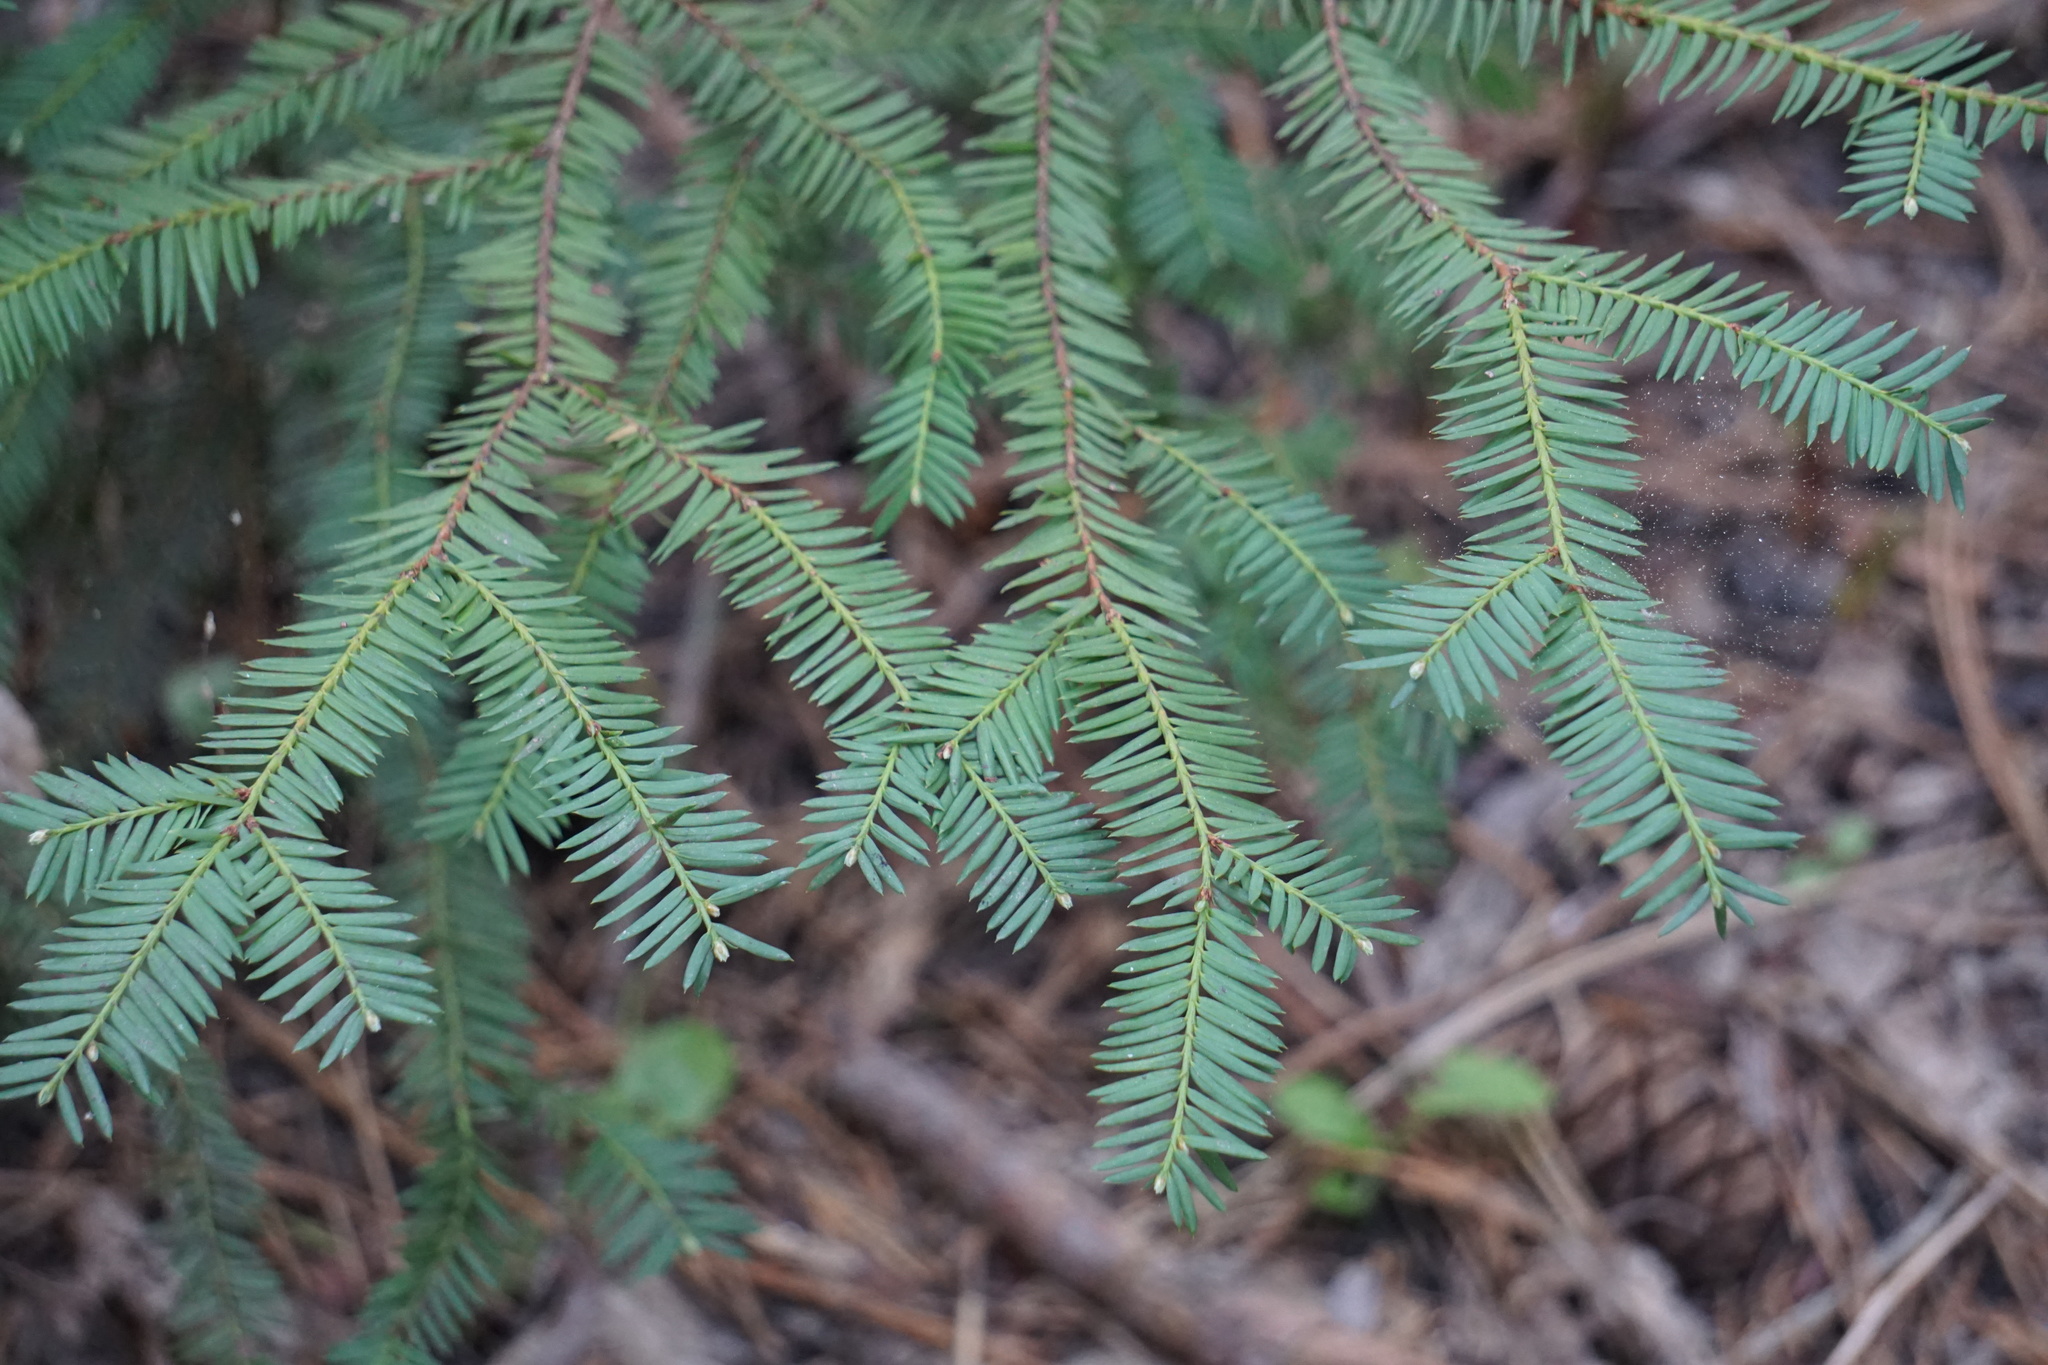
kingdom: Plantae
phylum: Tracheophyta
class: Pinopsida
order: Pinales
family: Taxaceae
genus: Taxus
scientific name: Taxus brevifolia
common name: Pacific yew
